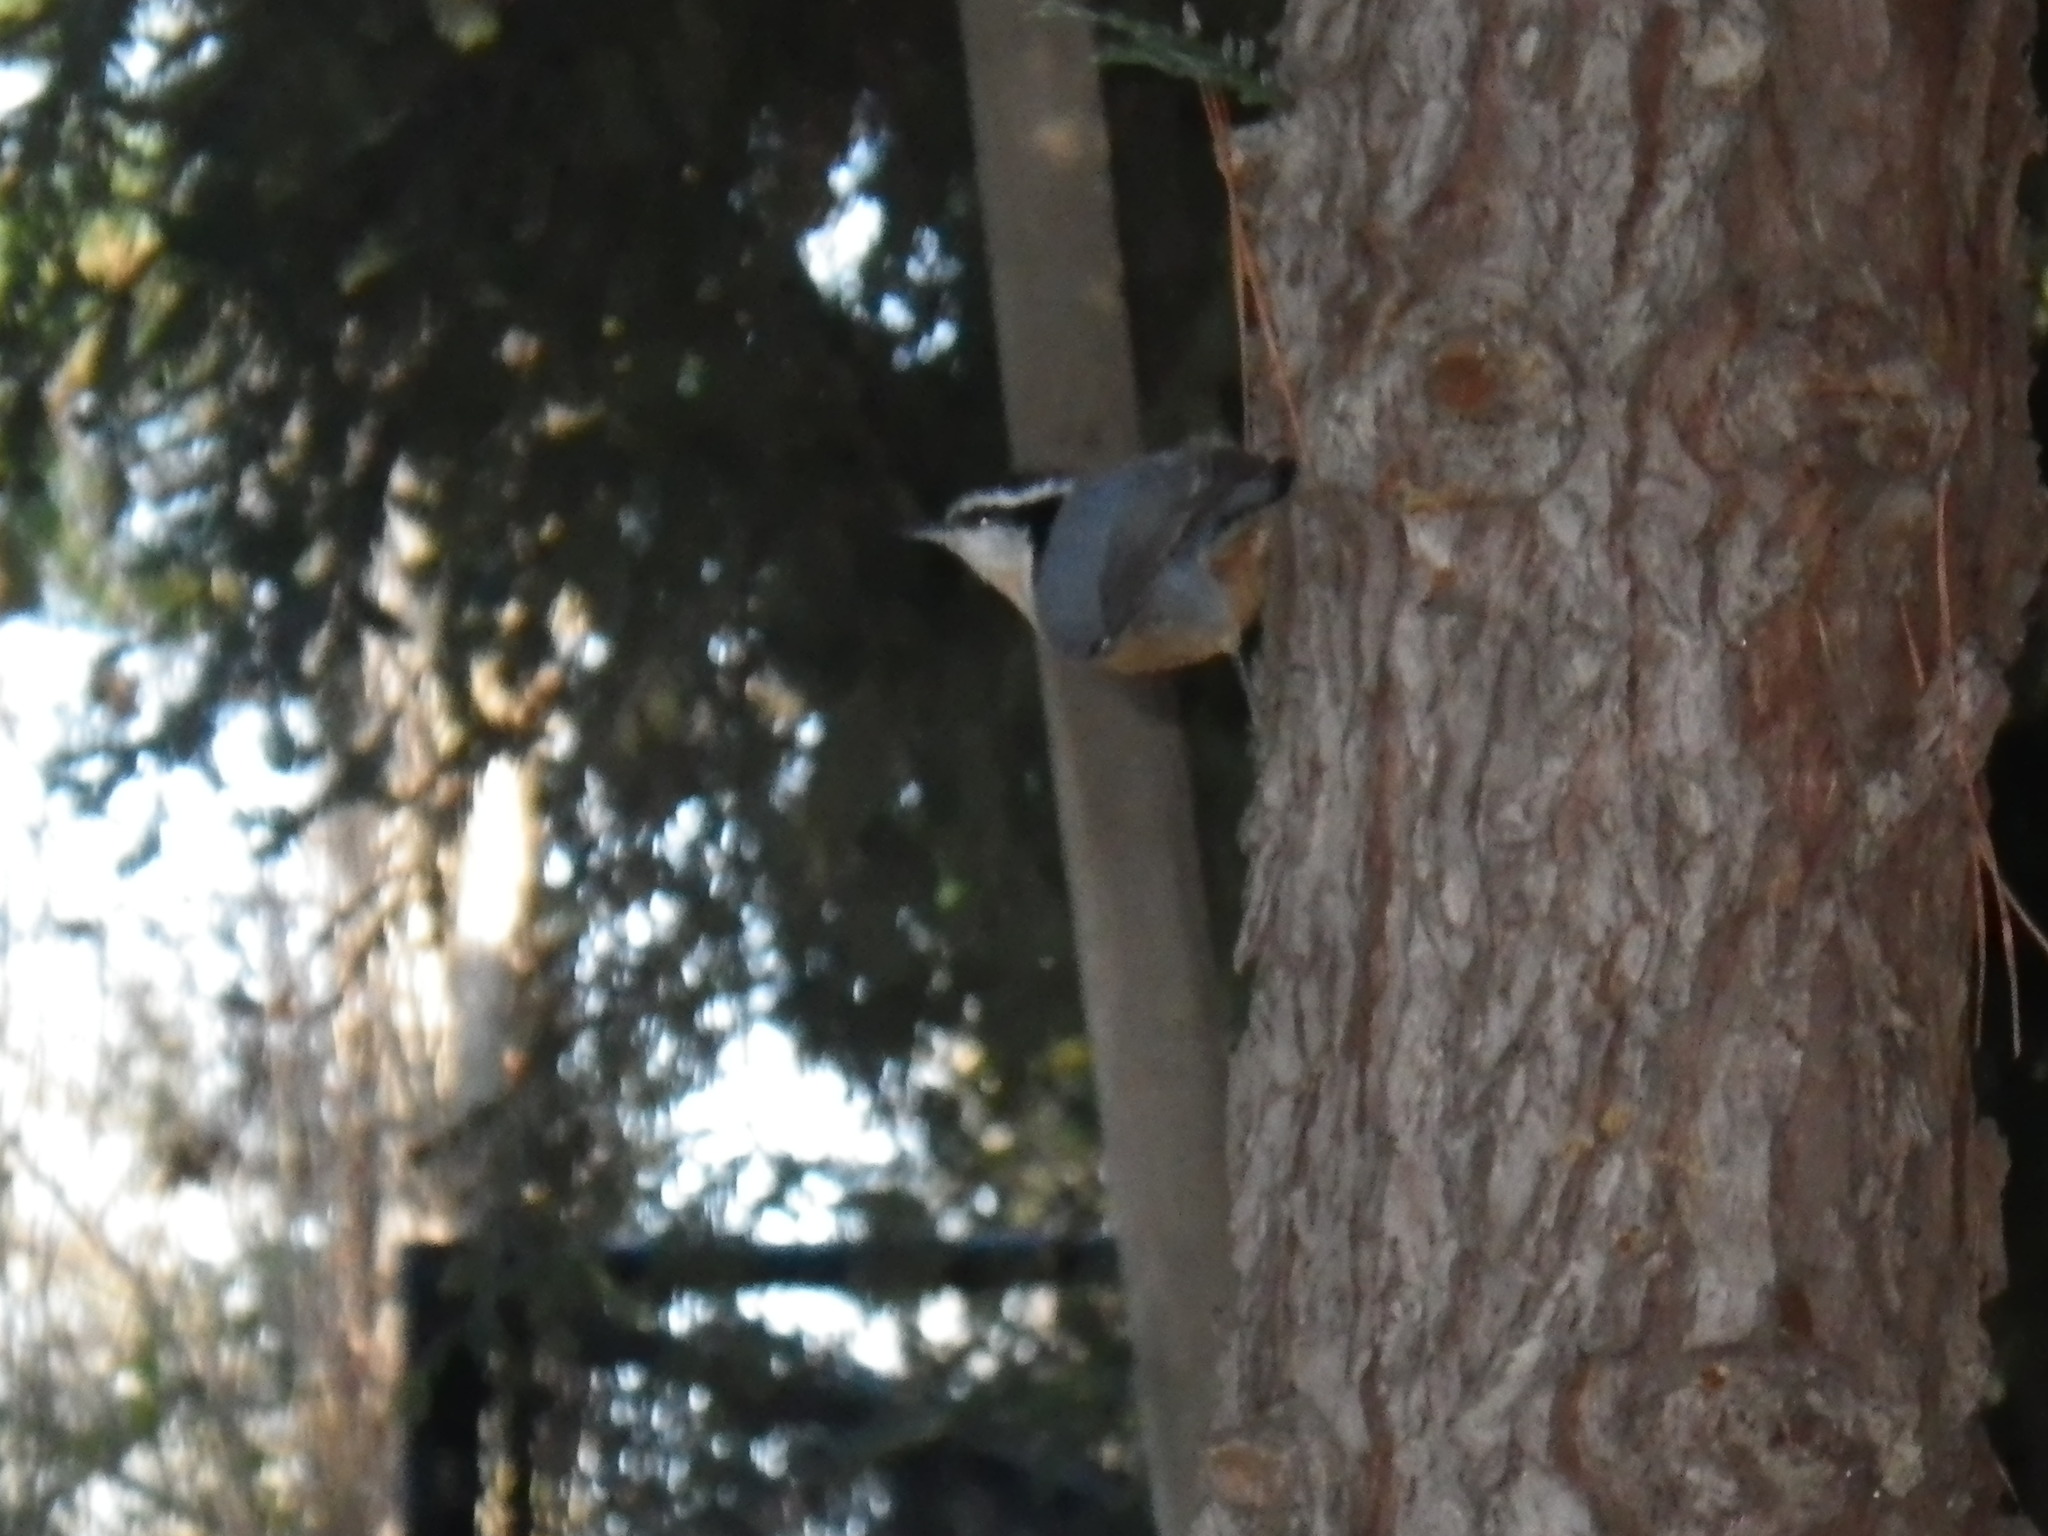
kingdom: Animalia
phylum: Chordata
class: Aves
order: Passeriformes
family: Sittidae
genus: Sitta
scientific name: Sitta canadensis
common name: Red-breasted nuthatch
